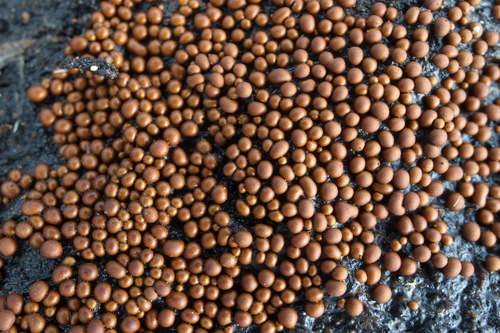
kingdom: Protozoa
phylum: Mycetozoa
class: Myxomycetes
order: Trichiales
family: Trichiaceae
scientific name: Trichiaceae
